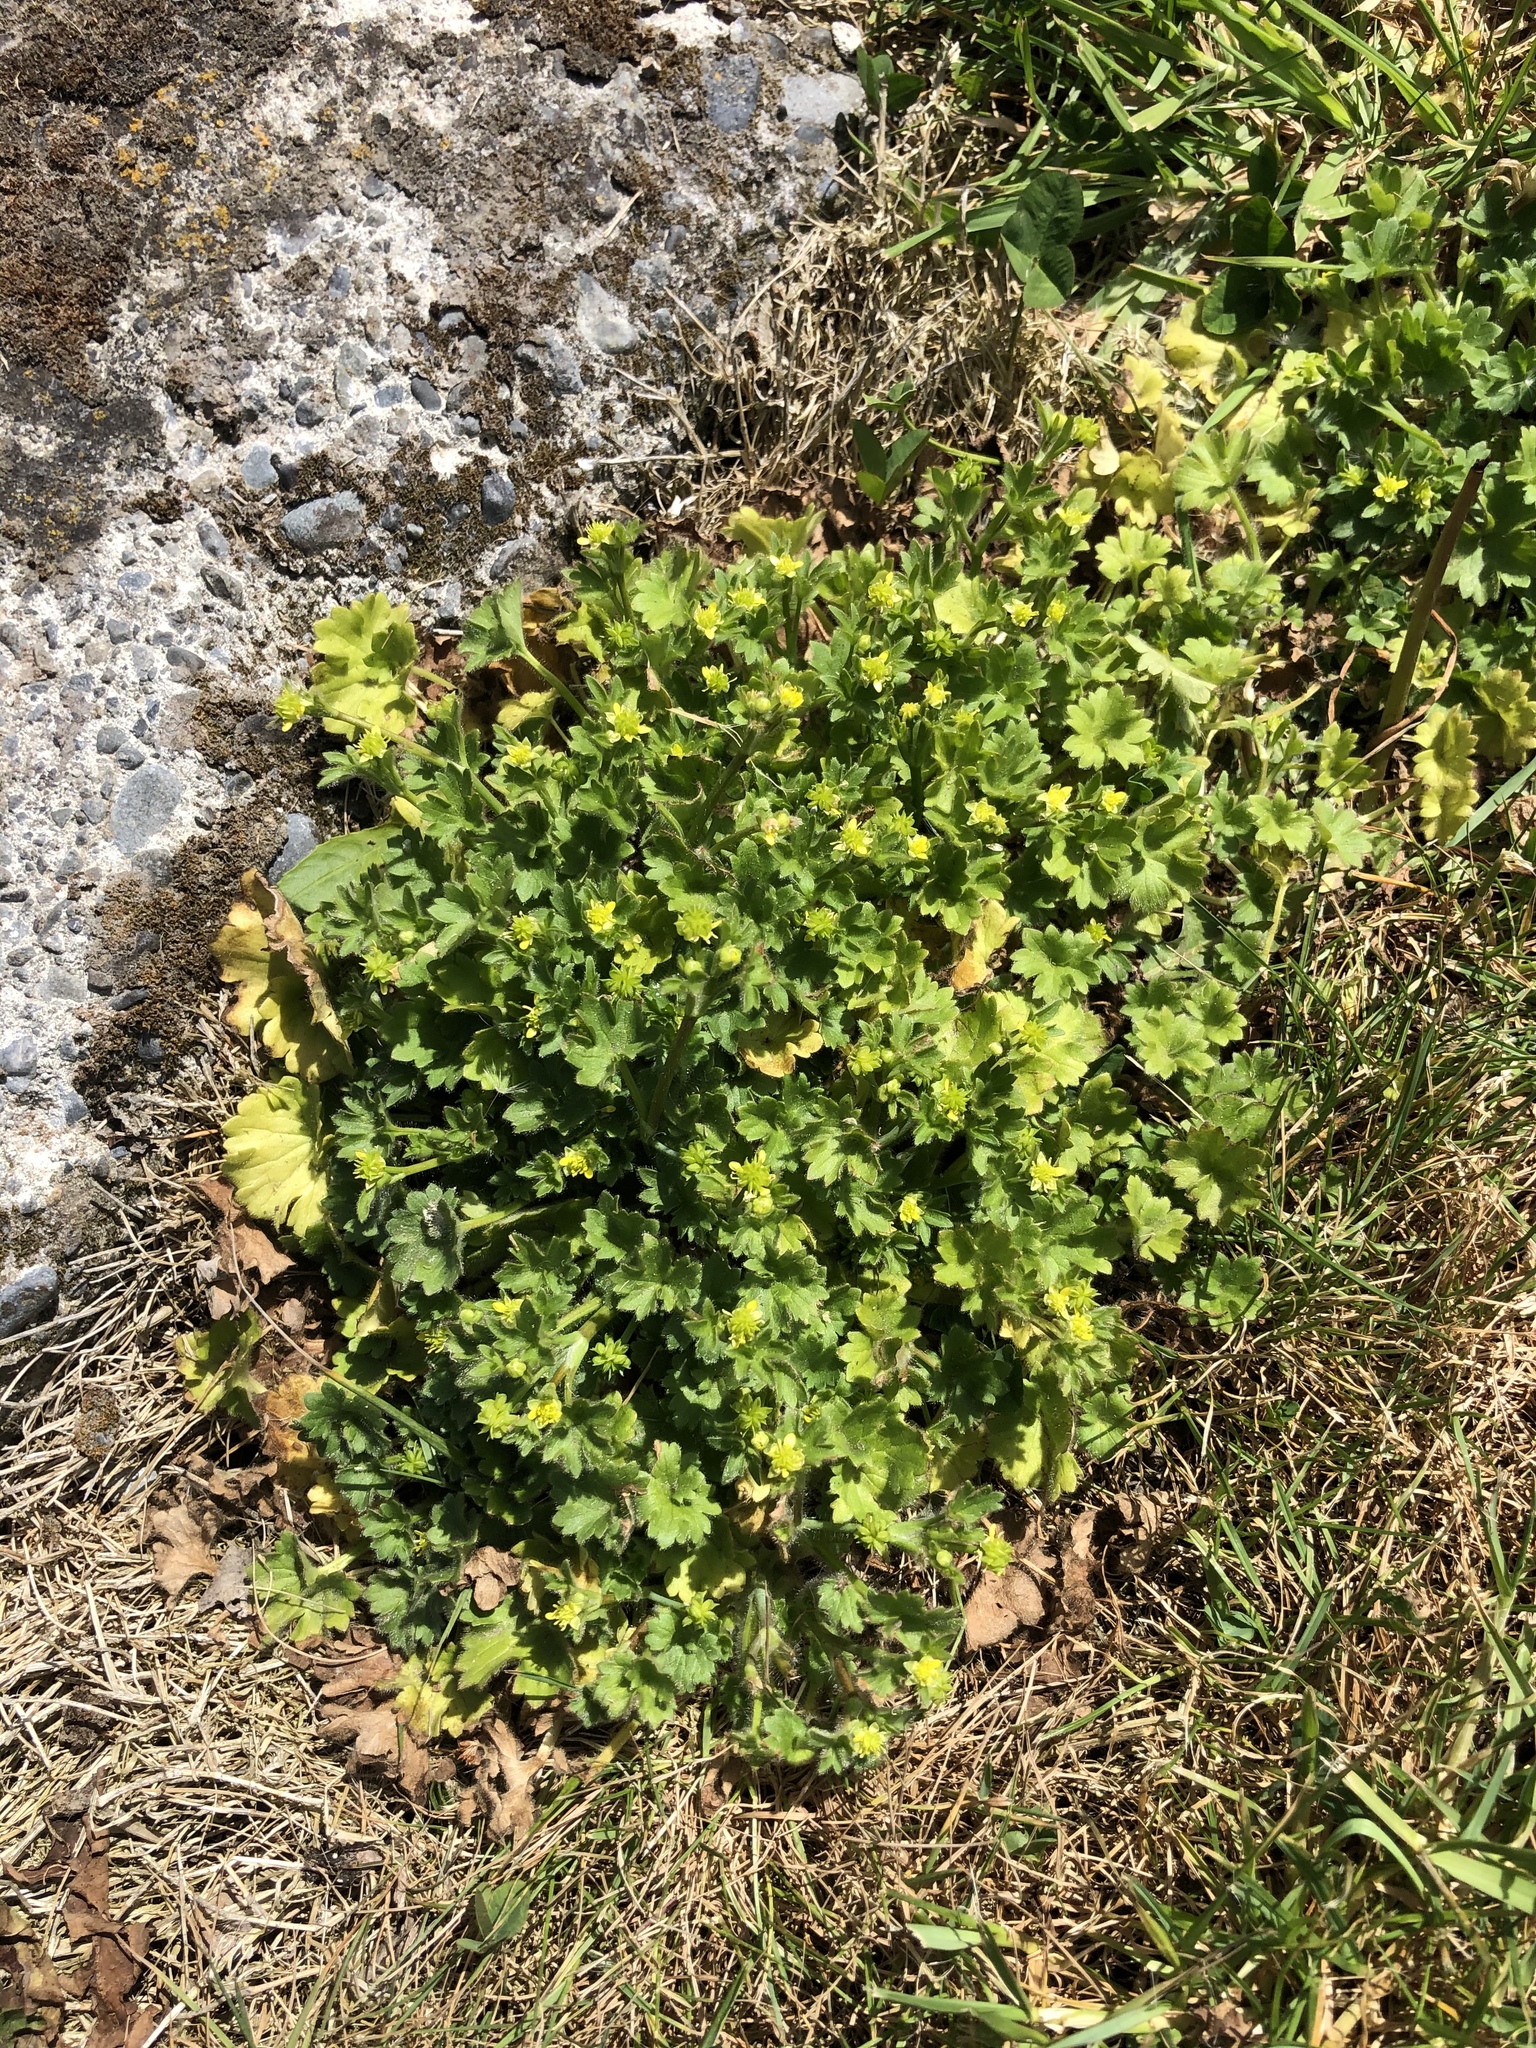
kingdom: Plantae
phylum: Tracheophyta
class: Magnoliopsida
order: Ranunculales
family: Ranunculaceae
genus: Ranunculus
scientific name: Ranunculus parviflorus
